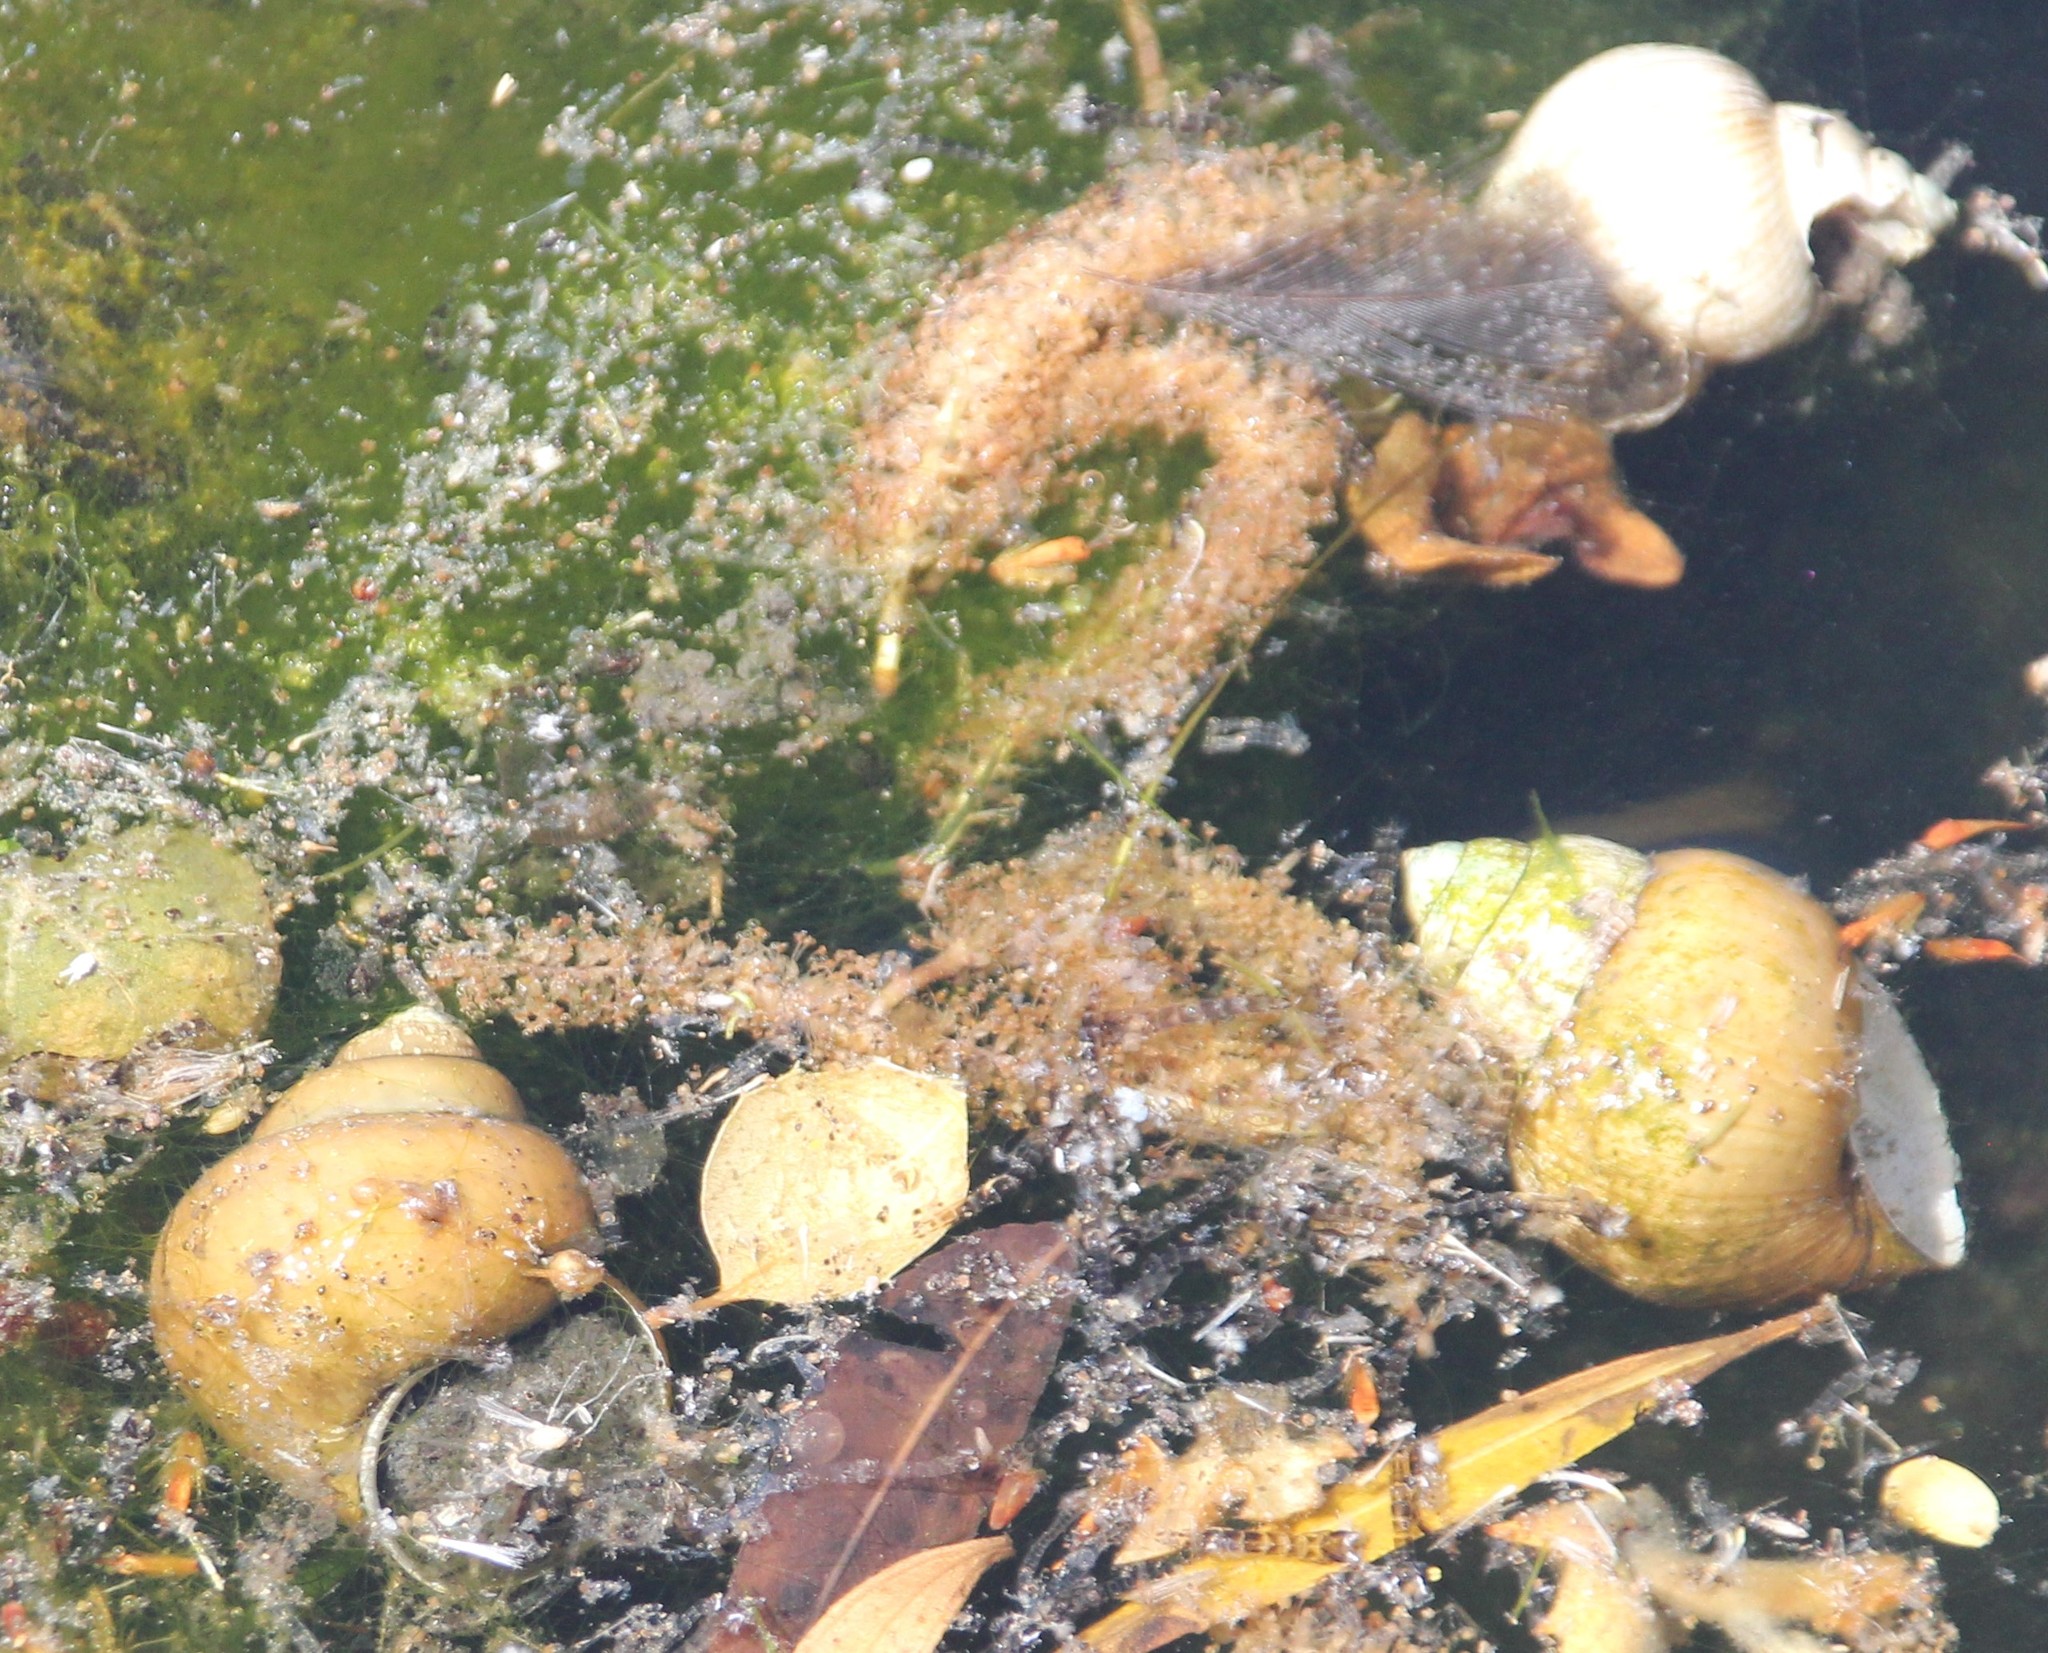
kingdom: Animalia
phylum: Mollusca
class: Gastropoda
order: Architaenioglossa
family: Viviparidae
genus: Cipangopaludina
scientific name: Cipangopaludina chinensis
